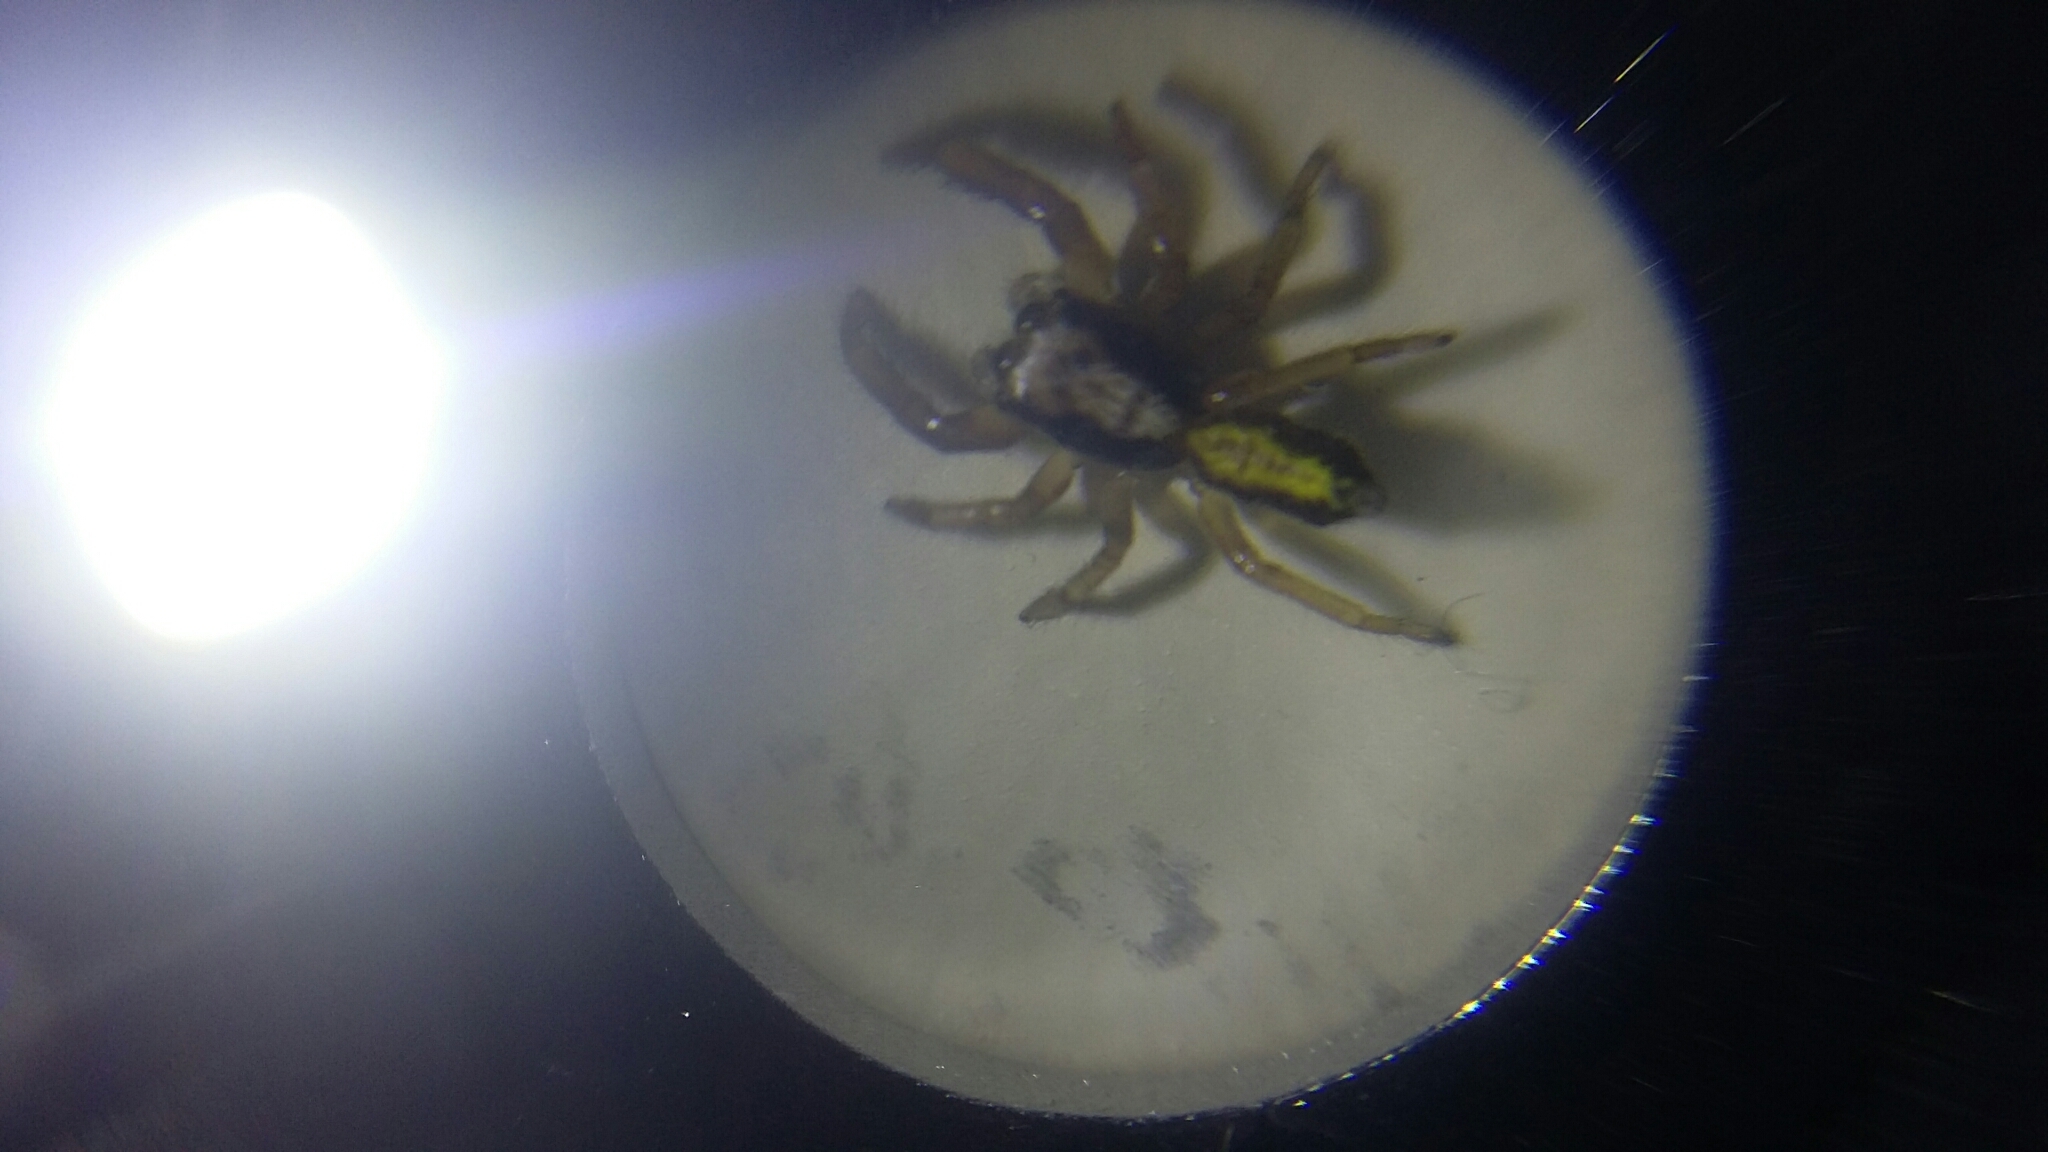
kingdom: Animalia
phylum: Arthropoda
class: Arachnida
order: Araneae
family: Salticidae
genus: Trite
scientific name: Trite planiceps
